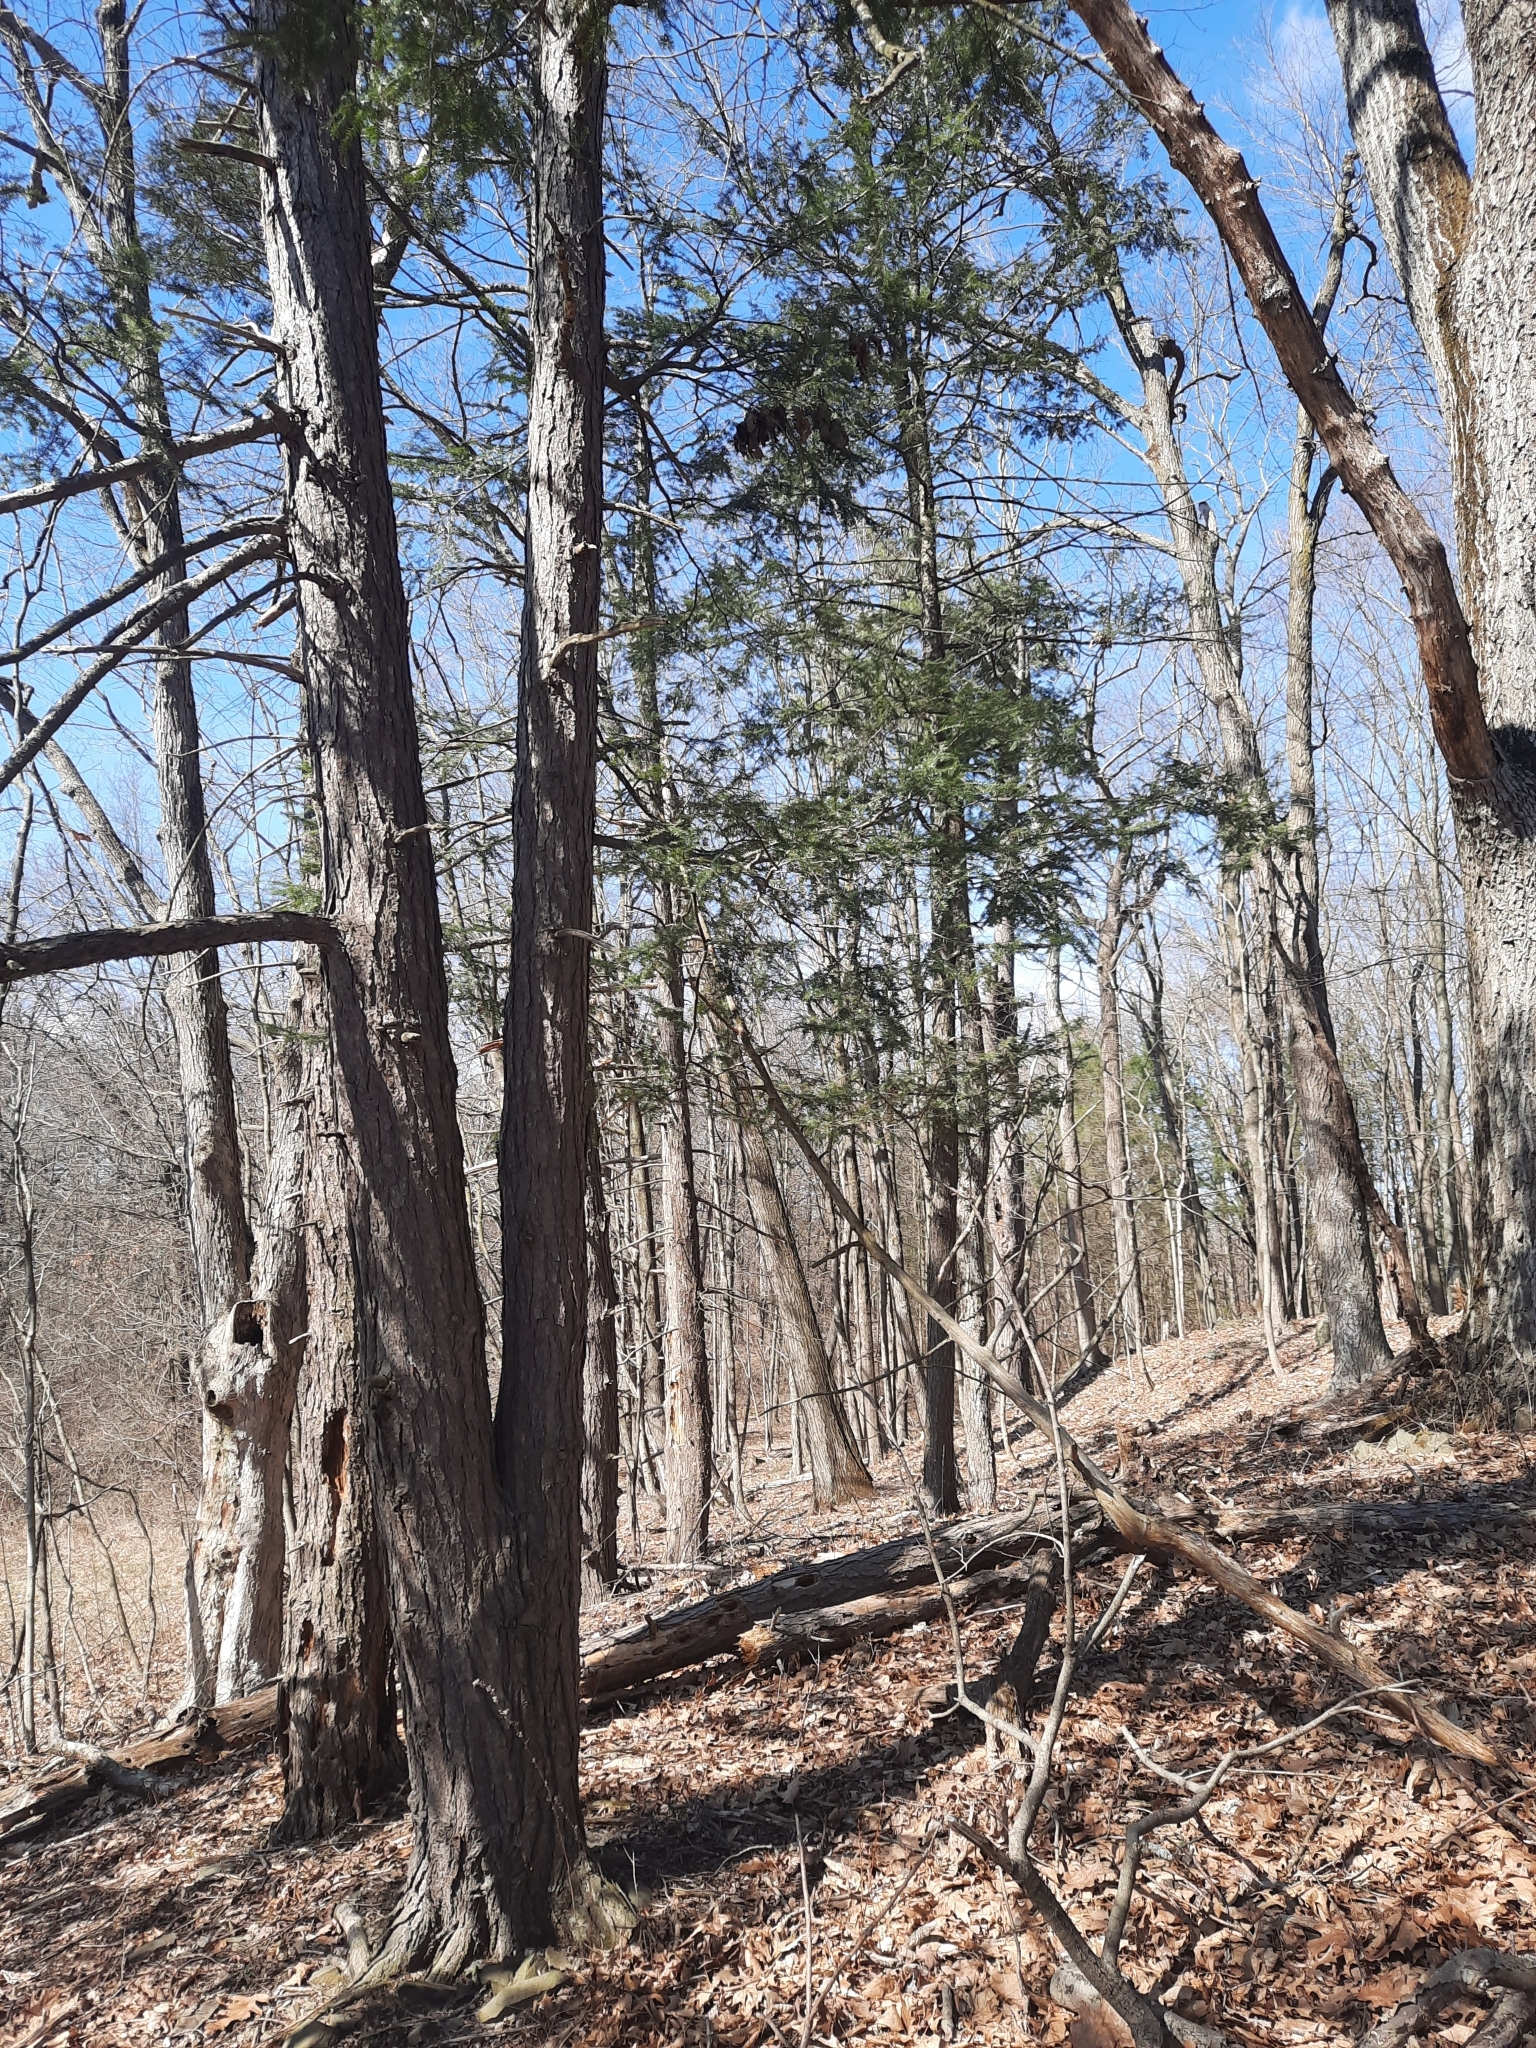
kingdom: Plantae
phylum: Tracheophyta
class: Pinopsida
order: Pinales
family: Pinaceae
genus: Tsuga
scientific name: Tsuga canadensis
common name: Eastern hemlock
